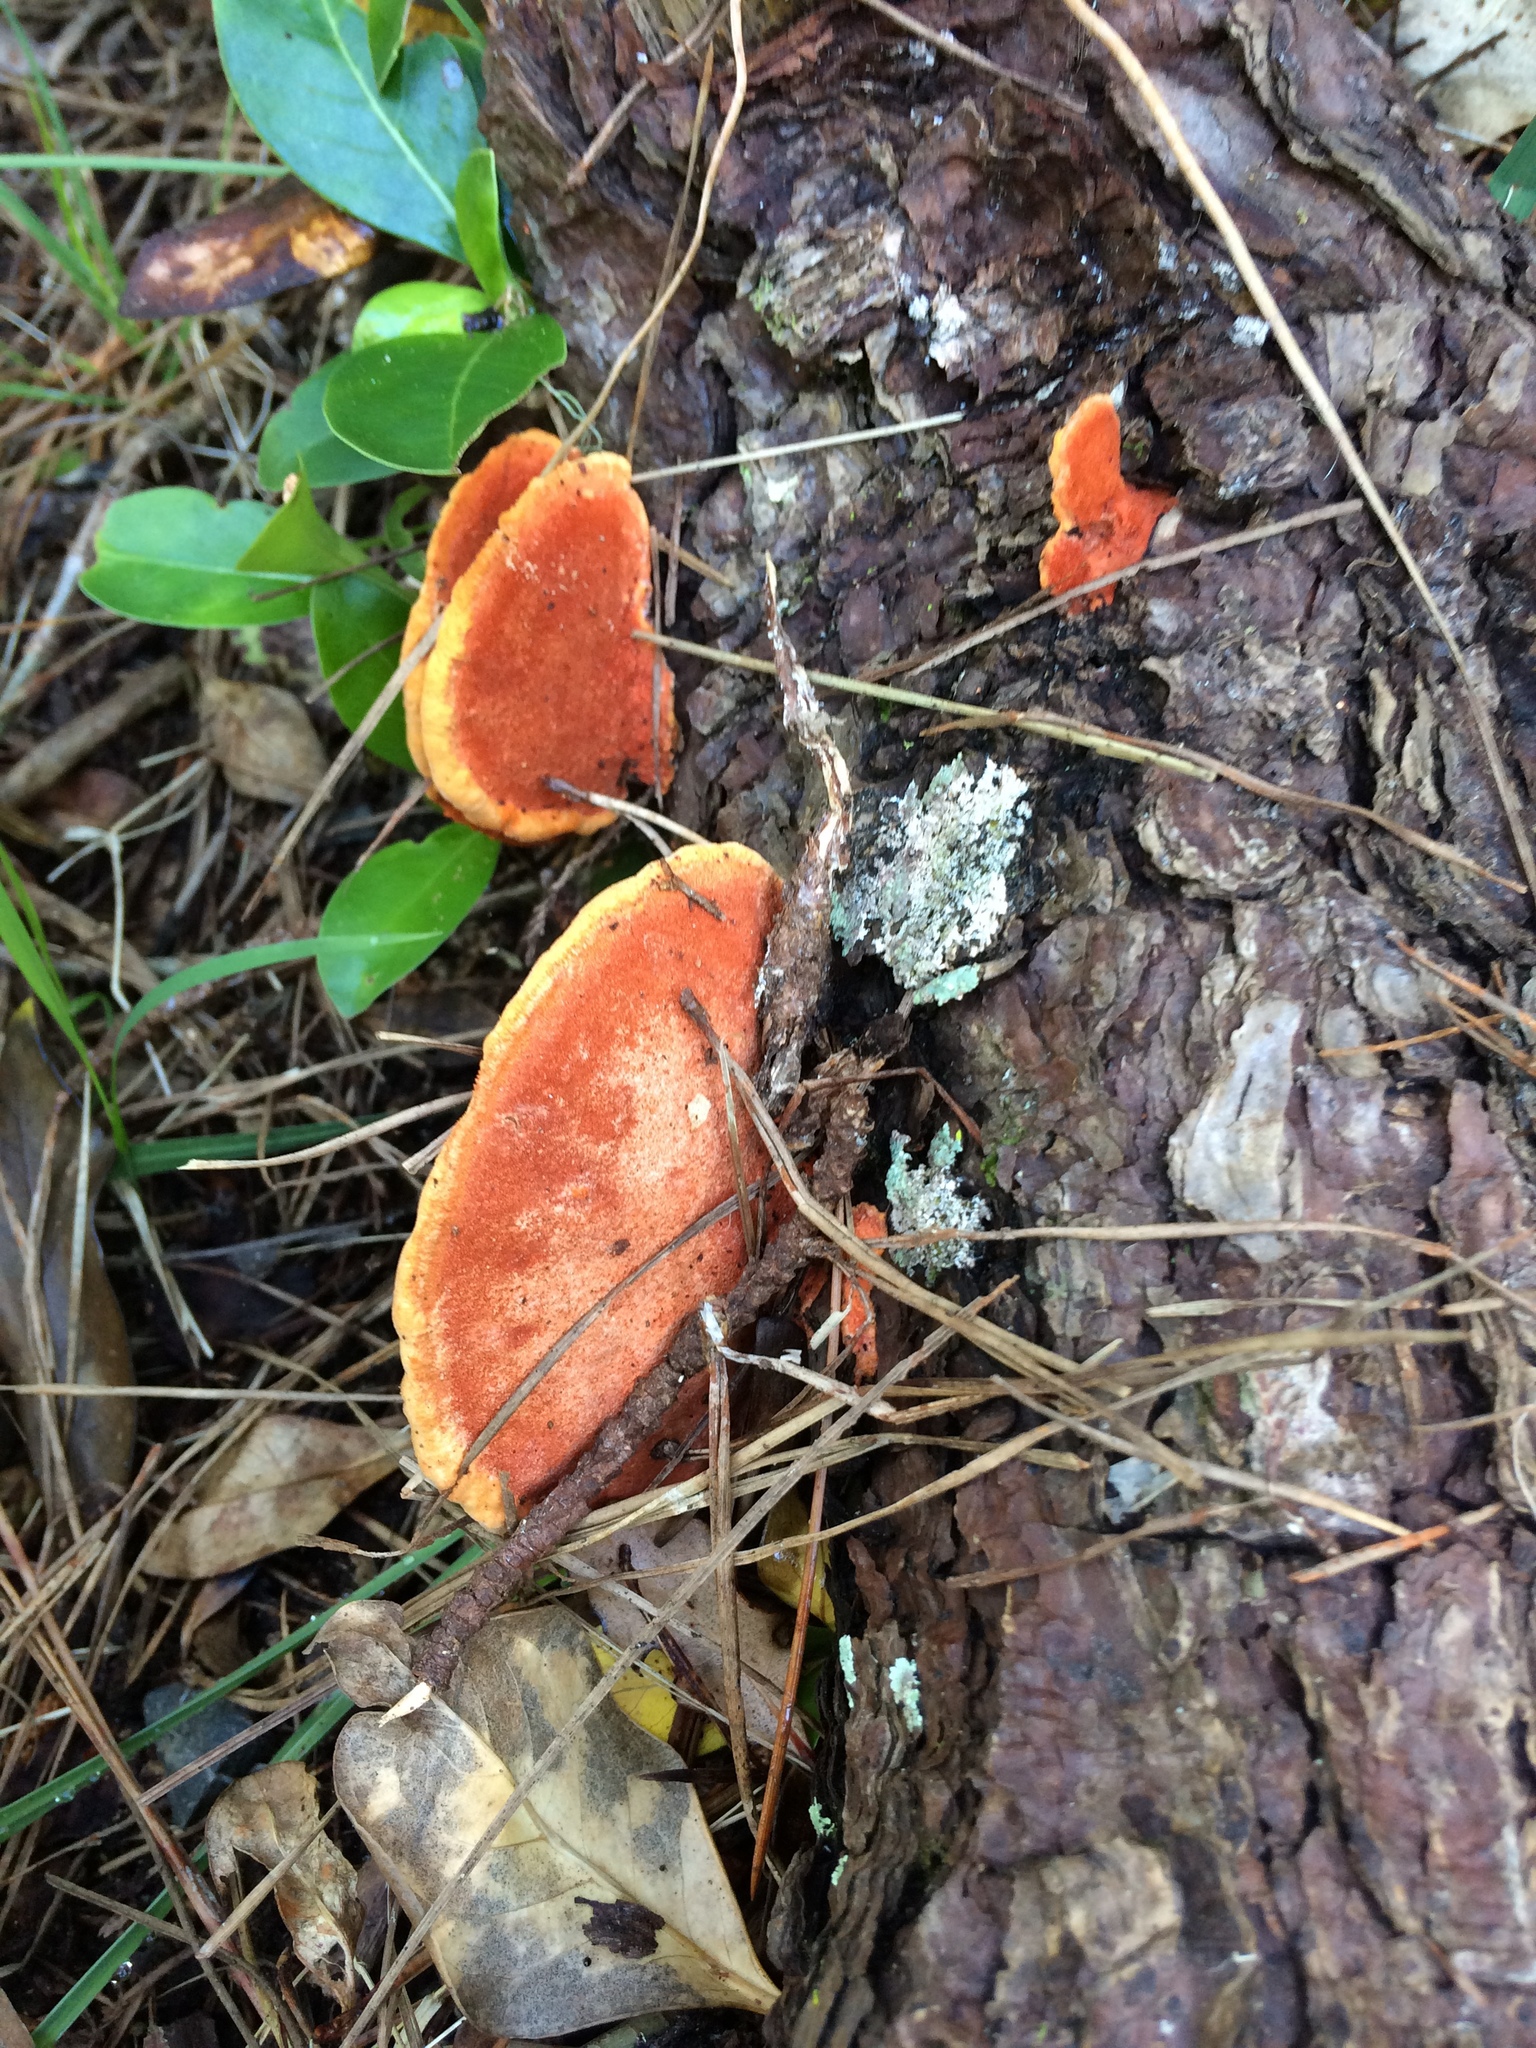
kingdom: Fungi
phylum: Basidiomycota
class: Agaricomycetes
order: Polyporales
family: Polyporaceae
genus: Trametes
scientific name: Trametes coccinea
